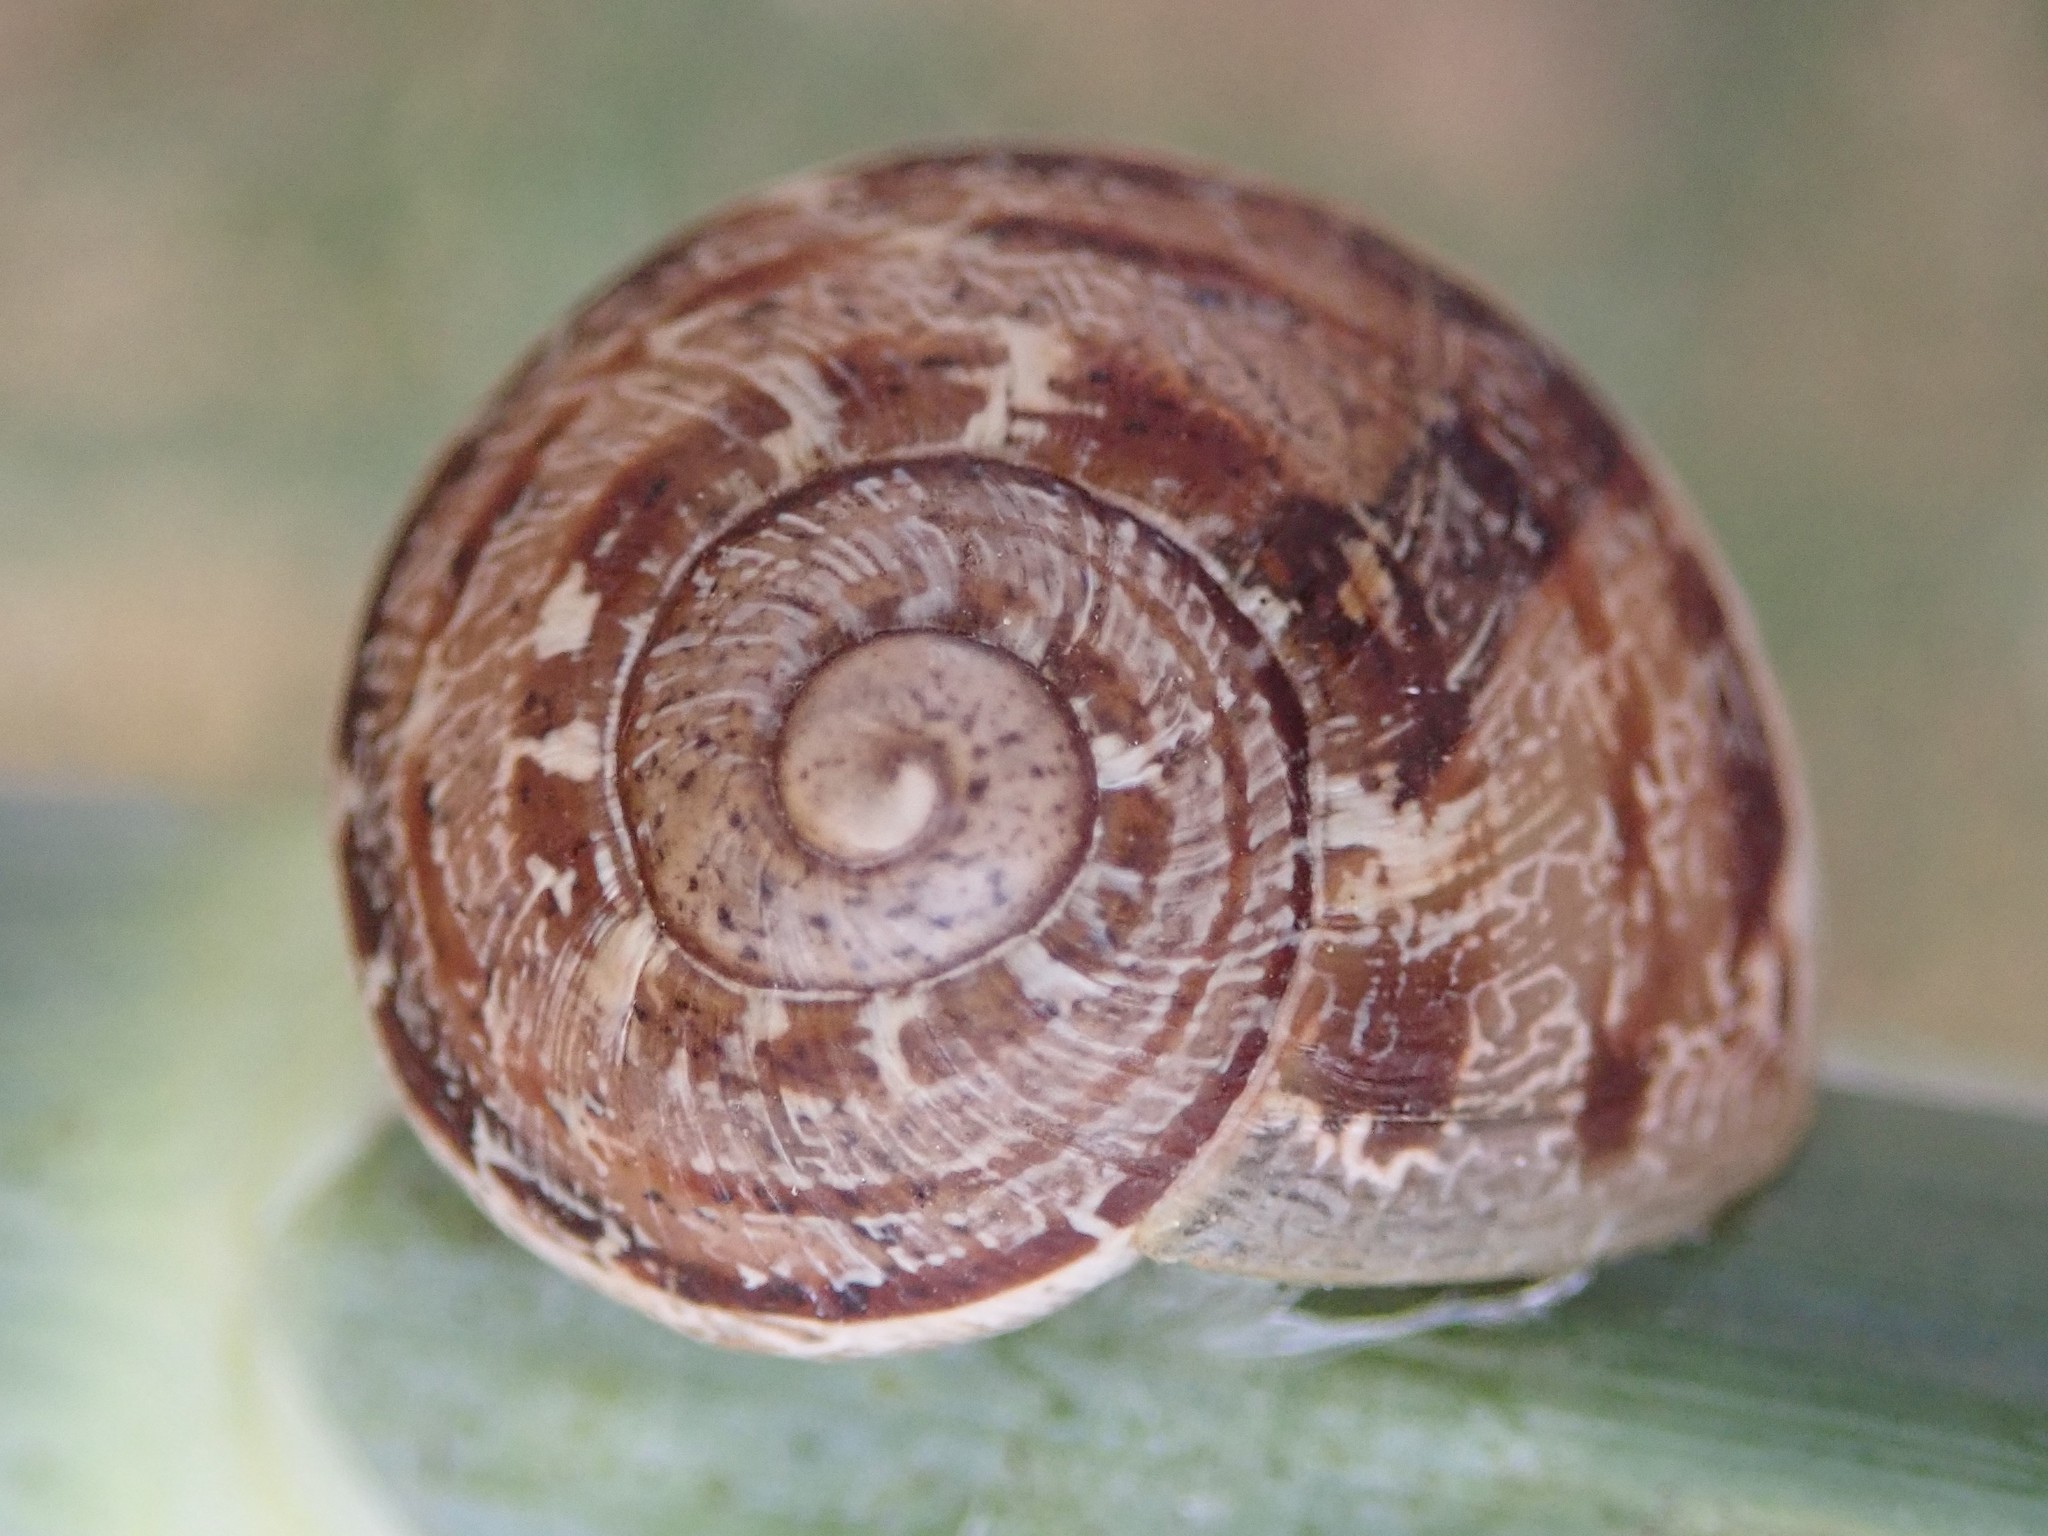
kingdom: Animalia
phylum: Mollusca
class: Gastropoda
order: Stylommatophora
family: Helicidae
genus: Cornu
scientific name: Cornu aspersum
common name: Brown garden snail
